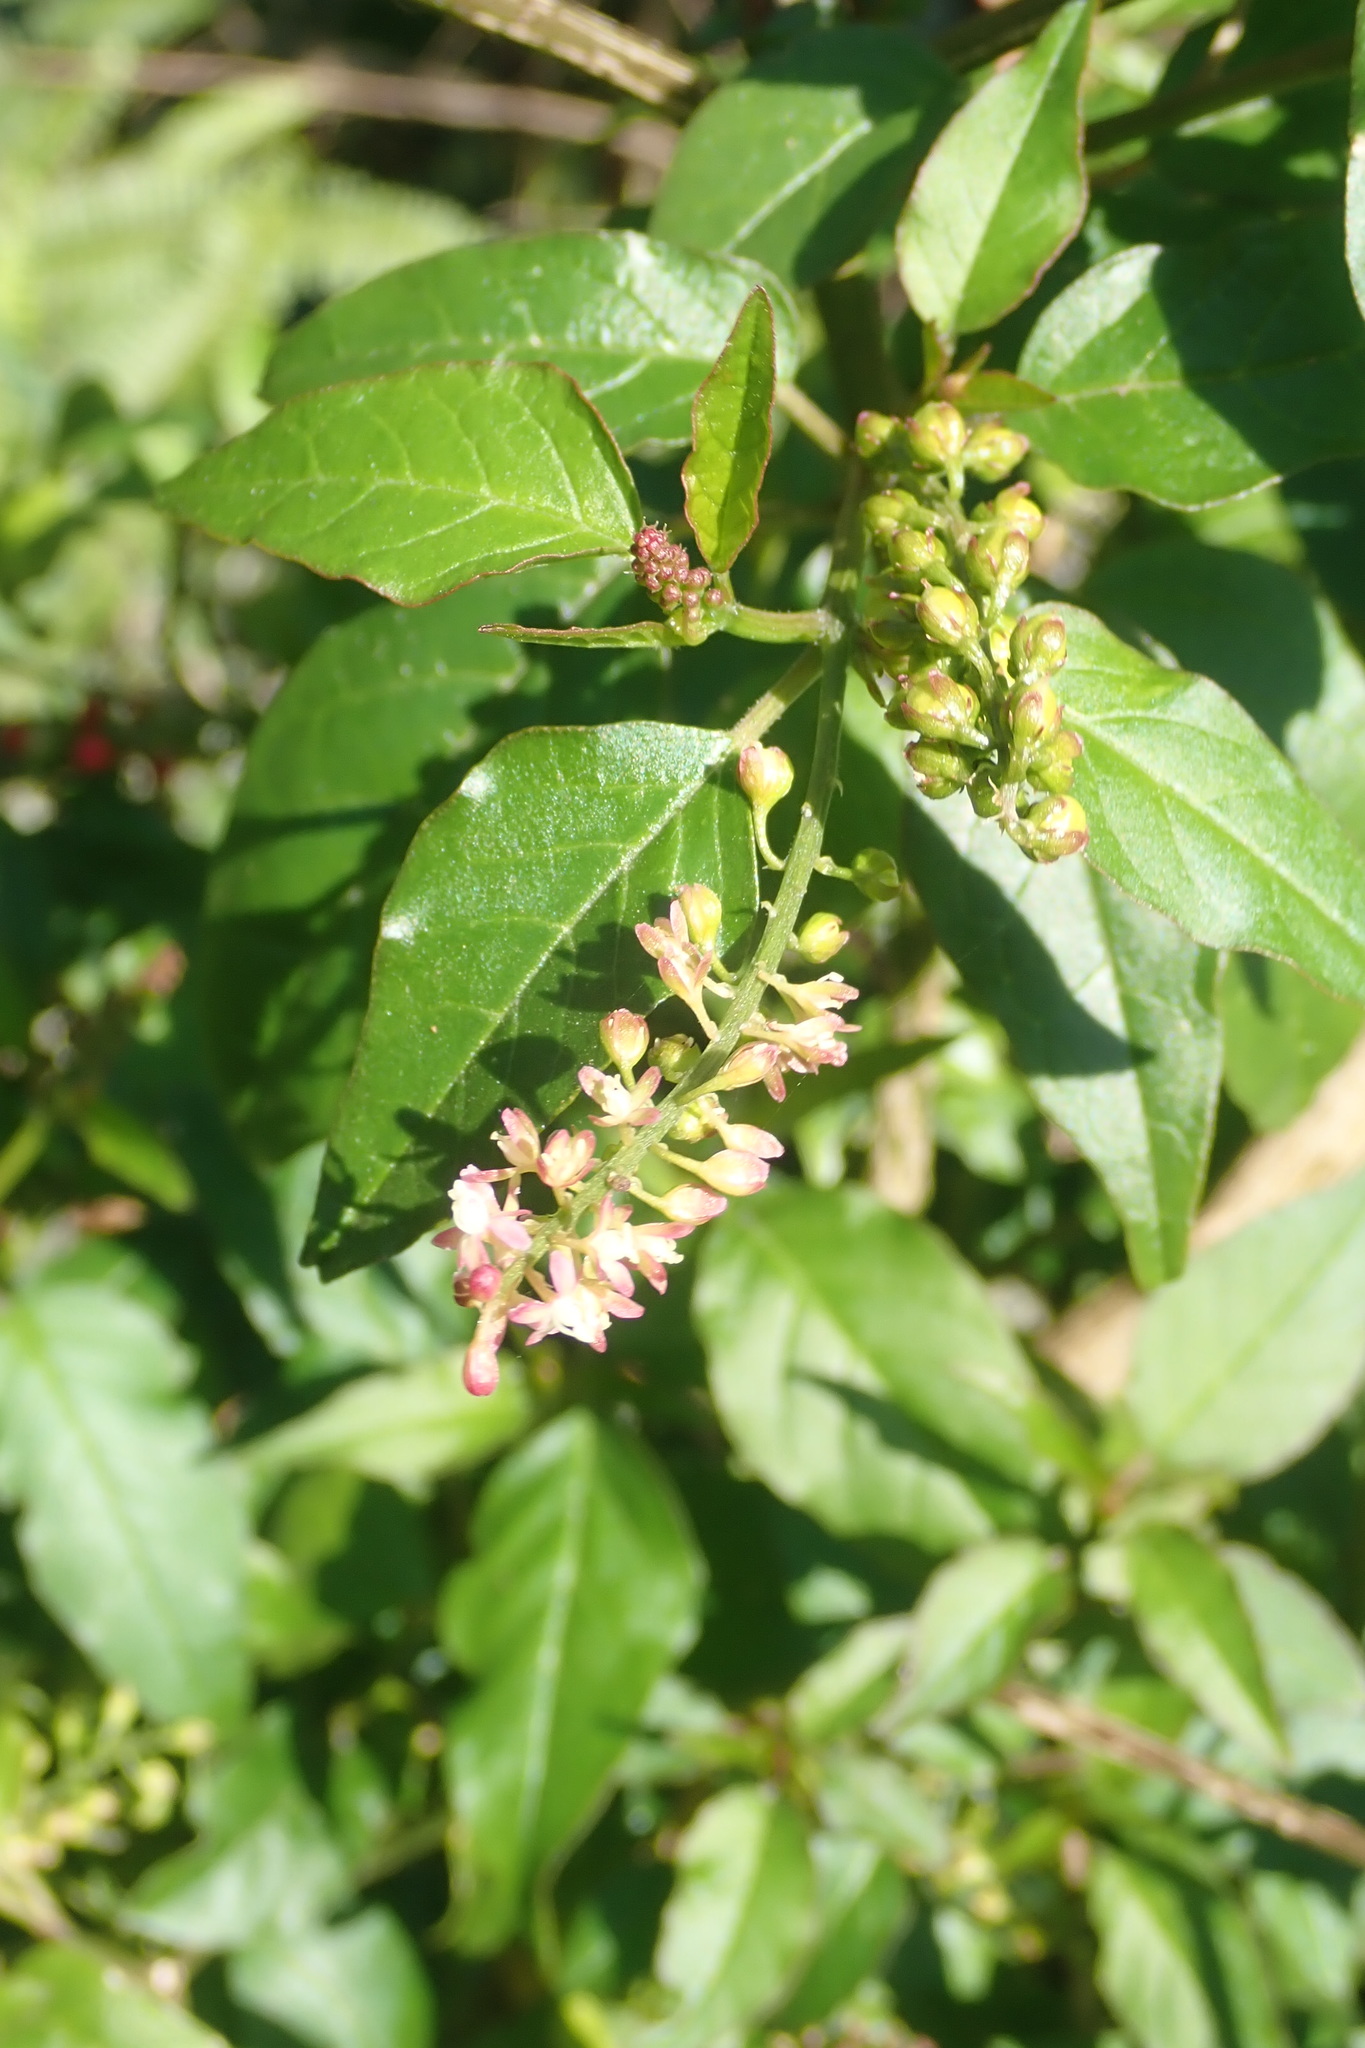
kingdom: Plantae
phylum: Tracheophyta
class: Magnoliopsida
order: Caryophyllales
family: Phytolaccaceae
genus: Rivina
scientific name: Rivina humilis
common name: Rougeplant
